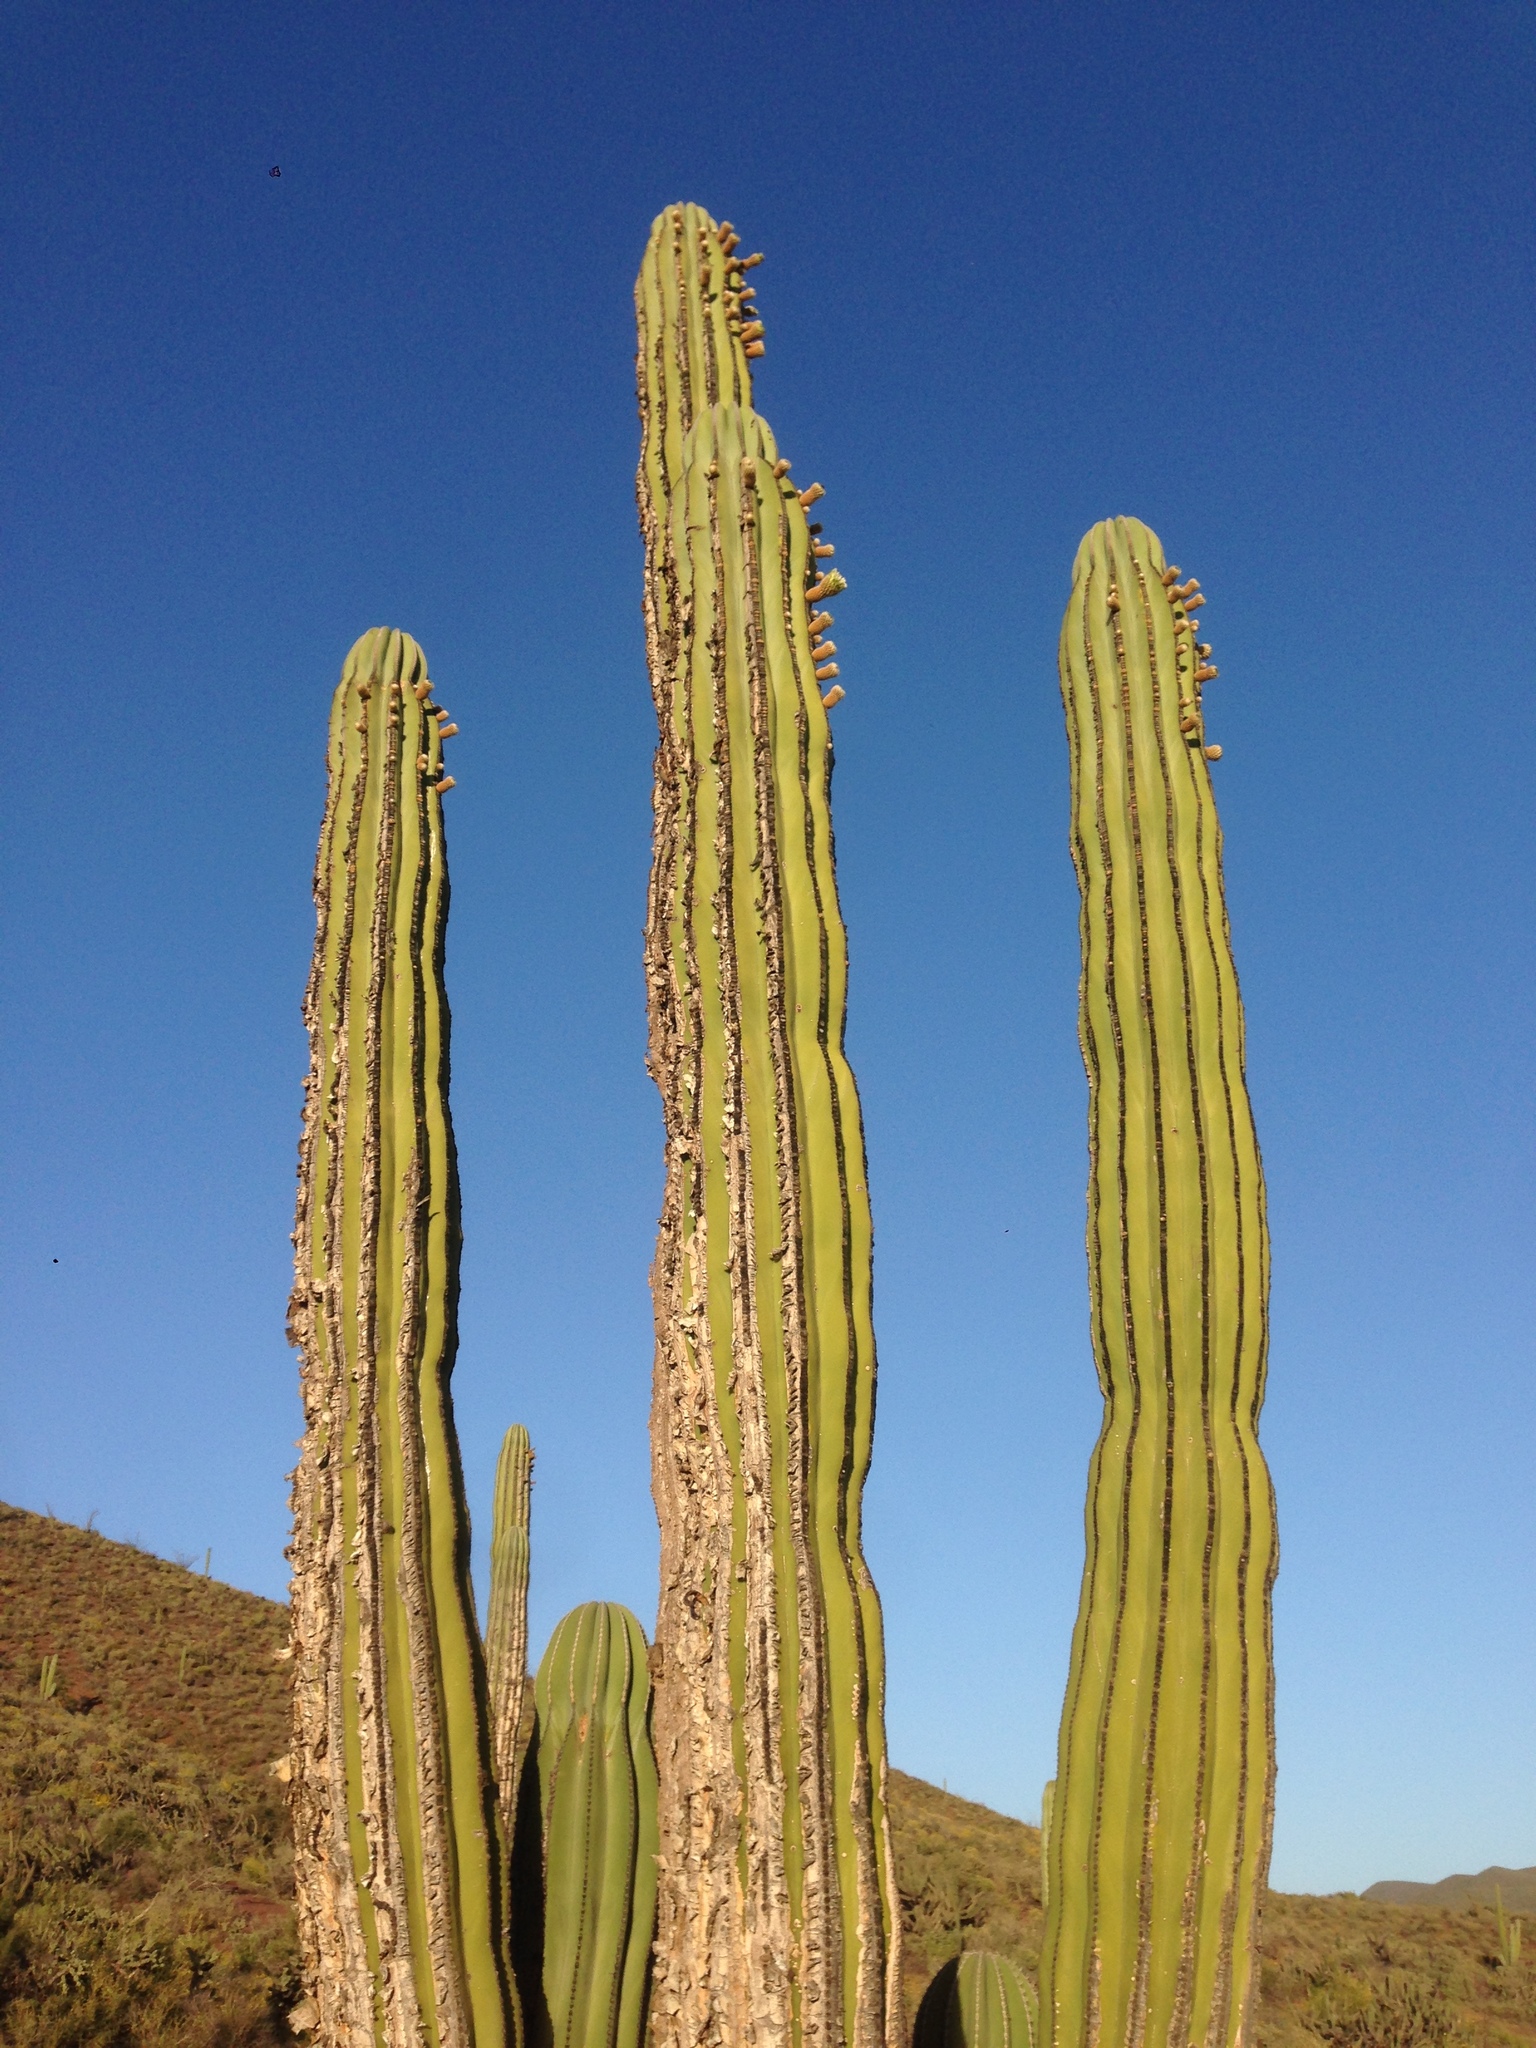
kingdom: Plantae
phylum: Tracheophyta
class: Magnoliopsida
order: Caryophyllales
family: Cactaceae
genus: Pachycereus
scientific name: Pachycereus pringlei
